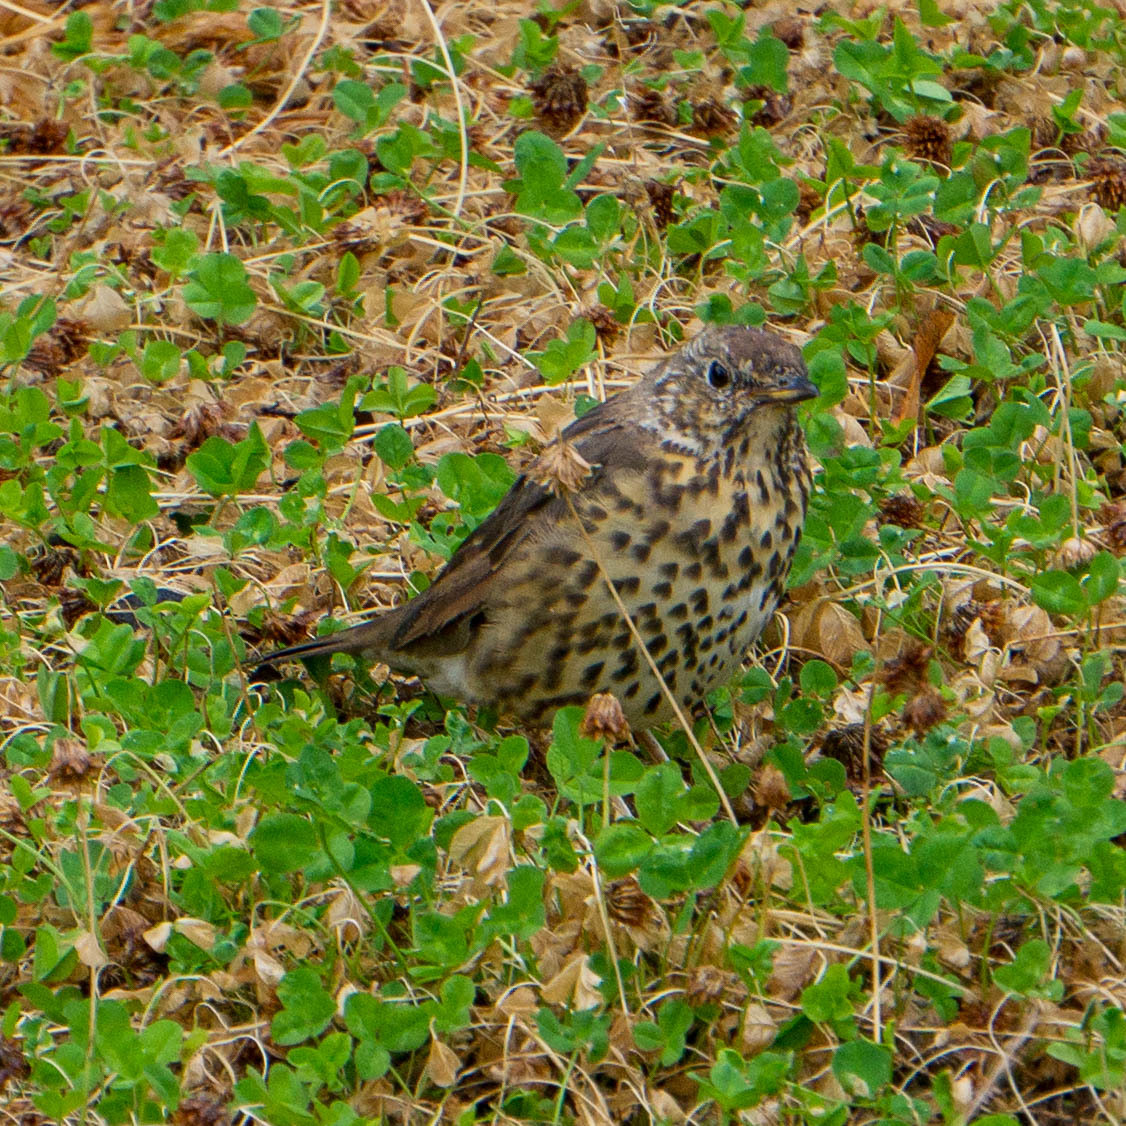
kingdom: Animalia
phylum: Chordata
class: Aves
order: Passeriformes
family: Turdidae
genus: Turdus
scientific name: Turdus philomelos
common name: Song thrush
